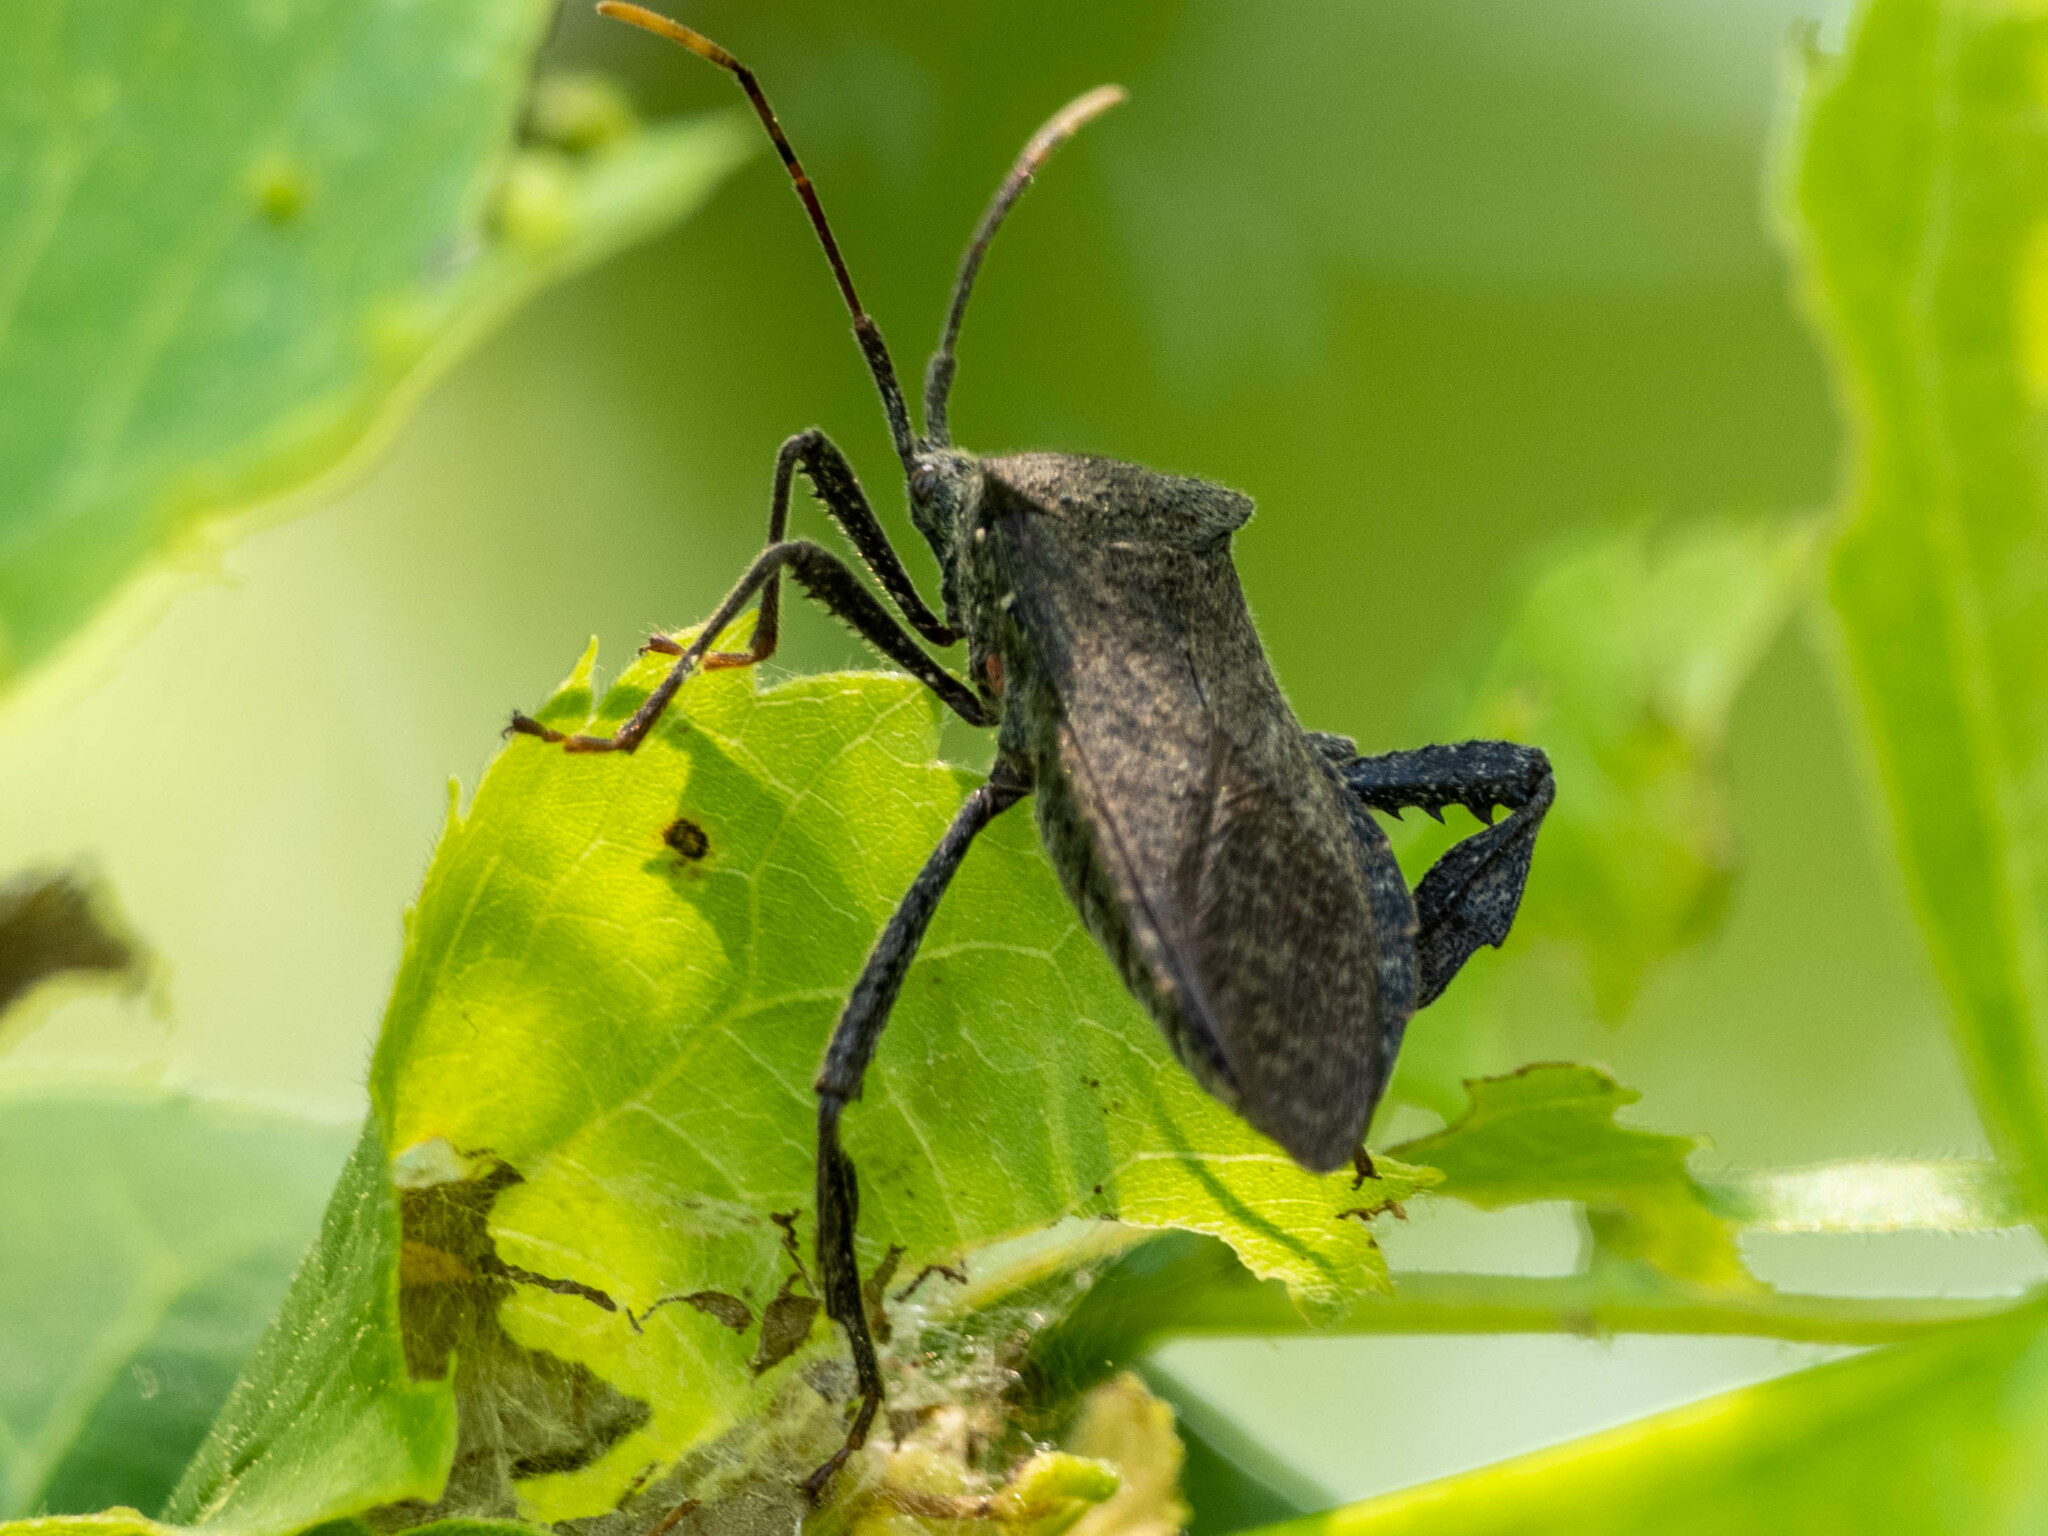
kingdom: Animalia
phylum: Arthropoda
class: Insecta
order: Hemiptera
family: Coreidae
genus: Acanthocephala
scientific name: Acanthocephala terminalis
